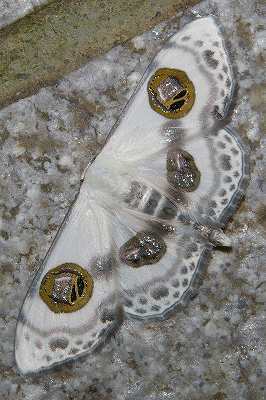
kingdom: Animalia
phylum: Arthropoda
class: Insecta
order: Lepidoptera
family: Geometridae
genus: Problepsis
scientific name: Problepsis diazoma
